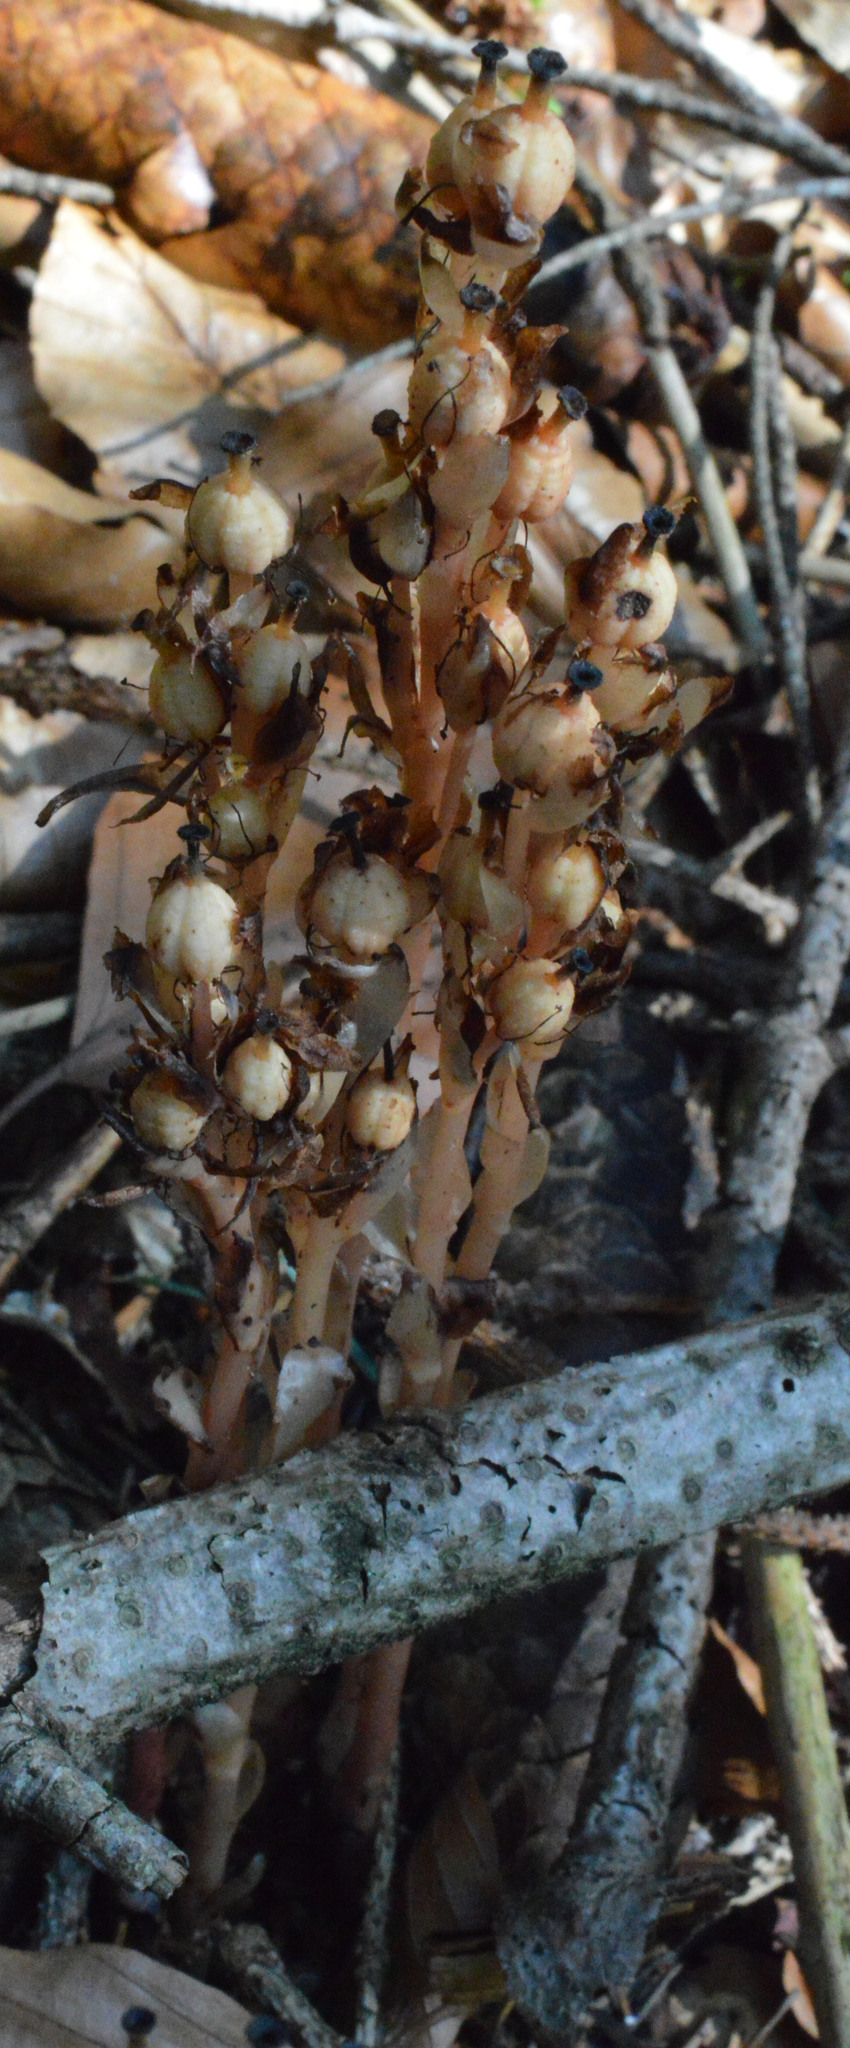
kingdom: Plantae
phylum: Tracheophyta
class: Magnoliopsida
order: Ericales
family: Ericaceae
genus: Hypopitys
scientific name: Hypopitys monotropa
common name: Yellow bird's-nest
